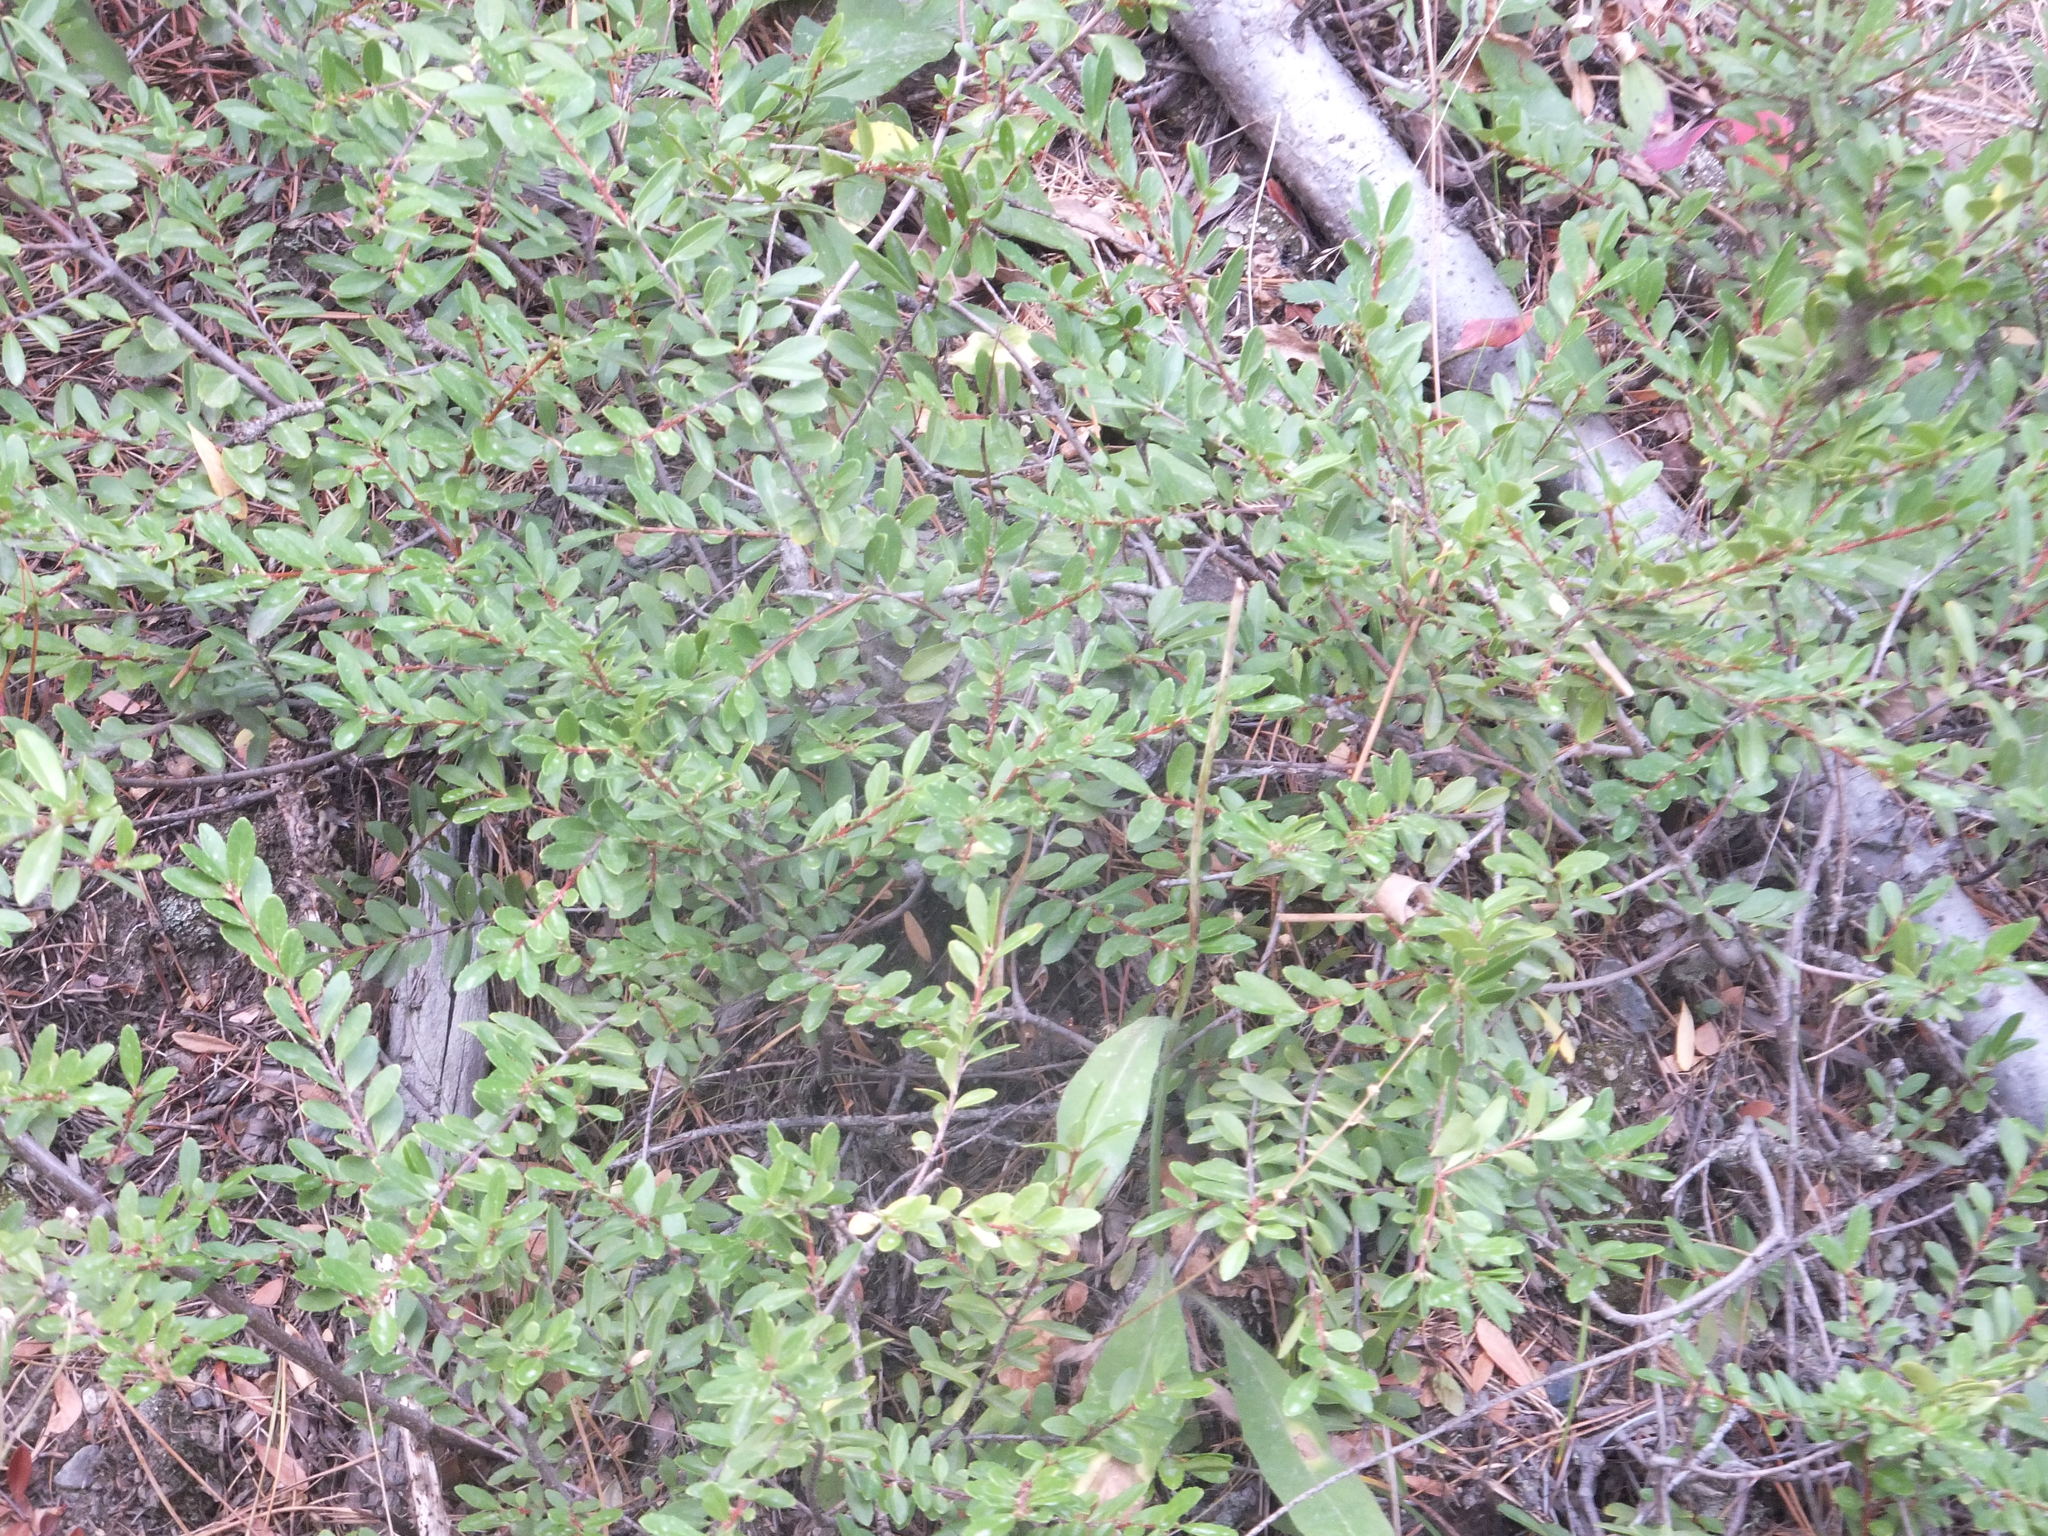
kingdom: Plantae
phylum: Tracheophyta
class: Magnoliopsida
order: Celastrales
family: Celastraceae
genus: Paxistima
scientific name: Paxistima myrsinites
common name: Mountain-lover
